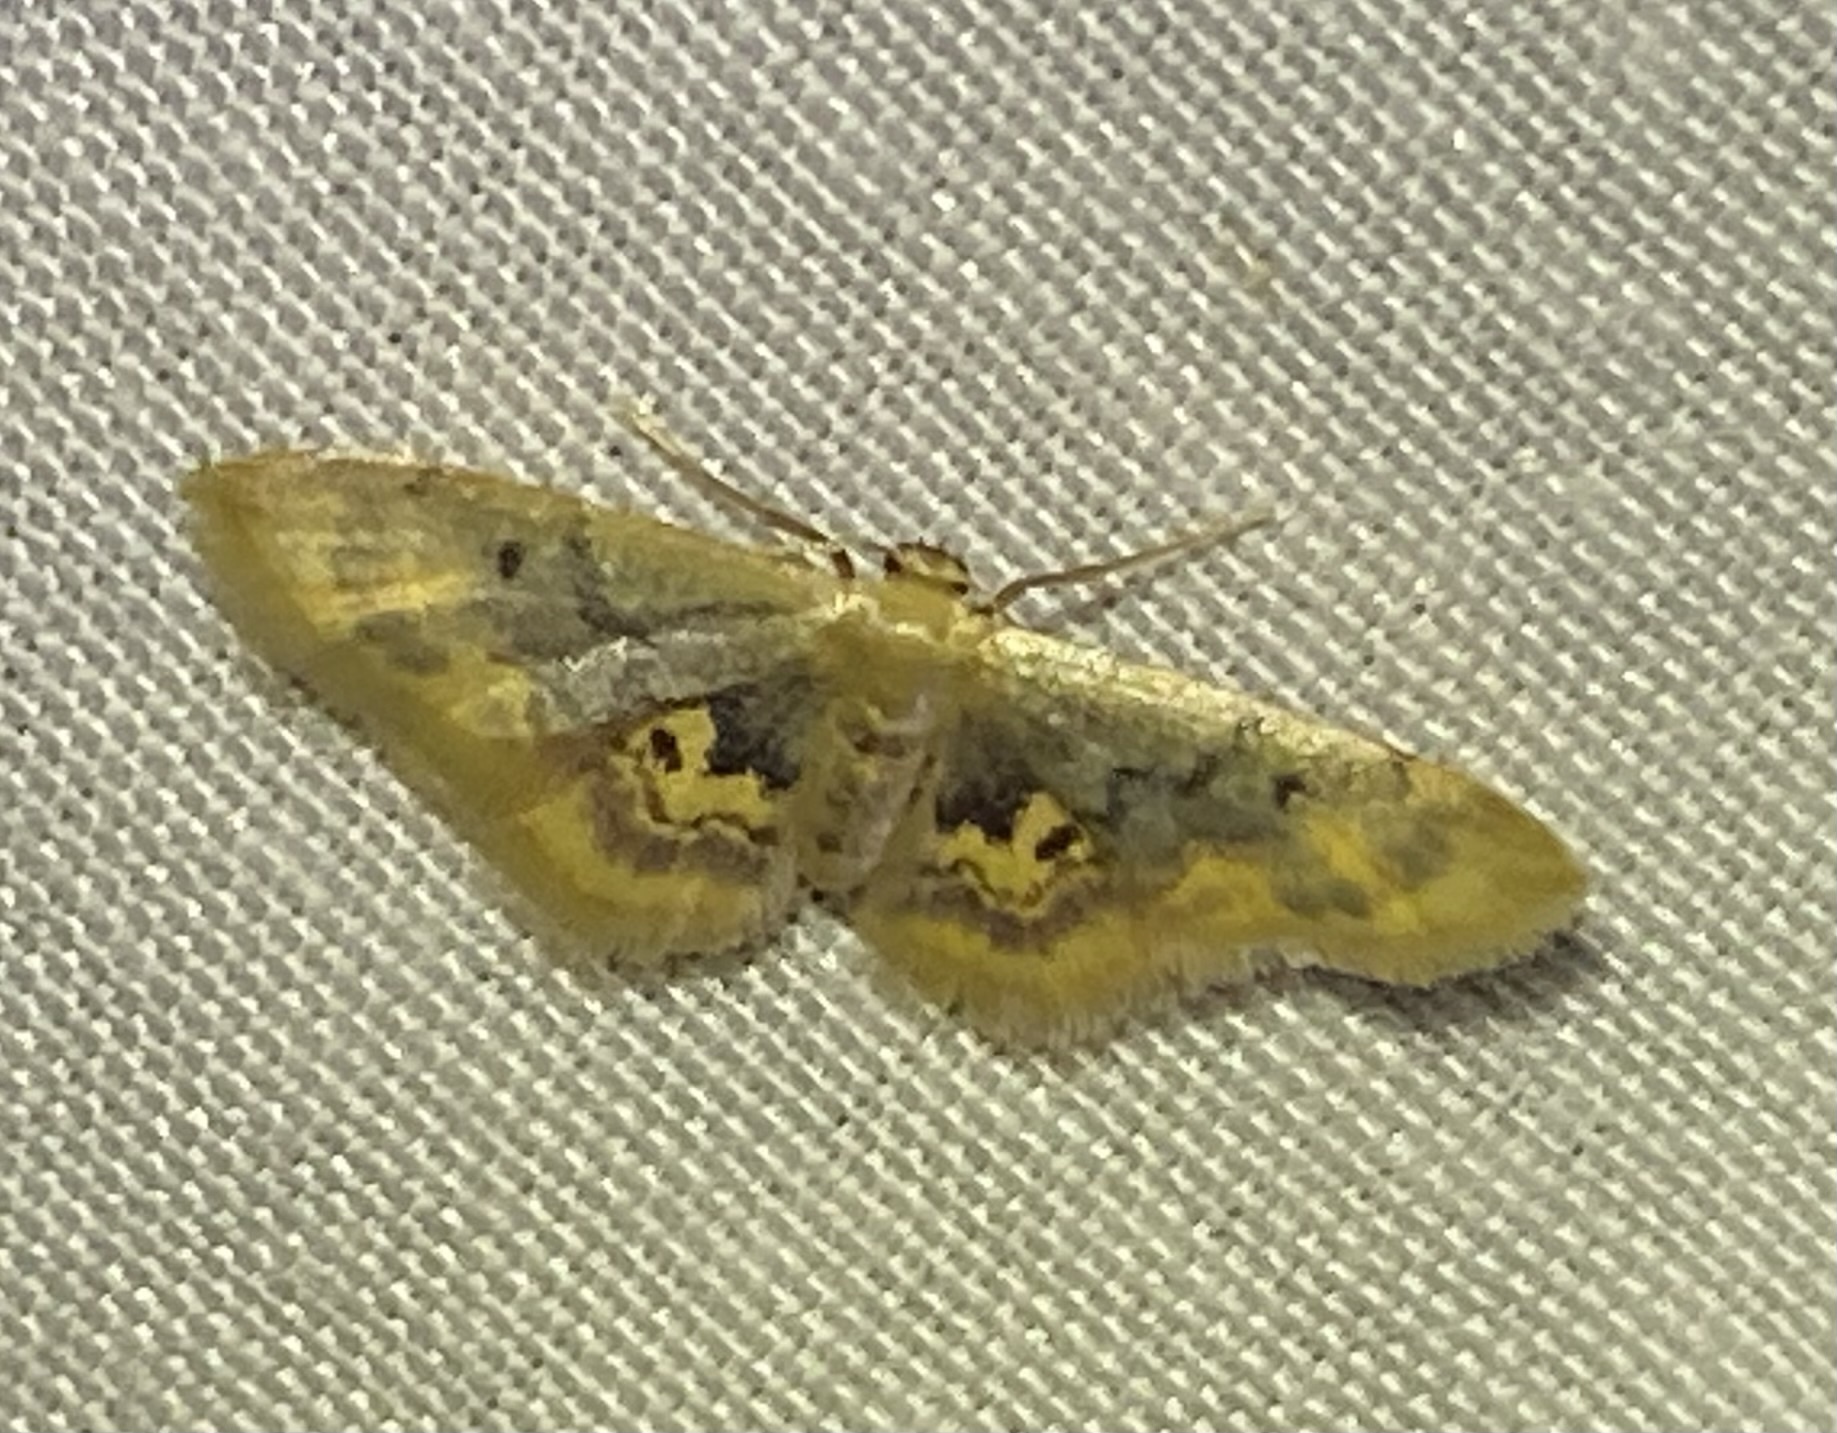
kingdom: Animalia
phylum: Arthropoda
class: Insecta
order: Lepidoptera
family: Geometridae
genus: Idaea
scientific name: Idaea scintillularia
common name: Diminutive wave
